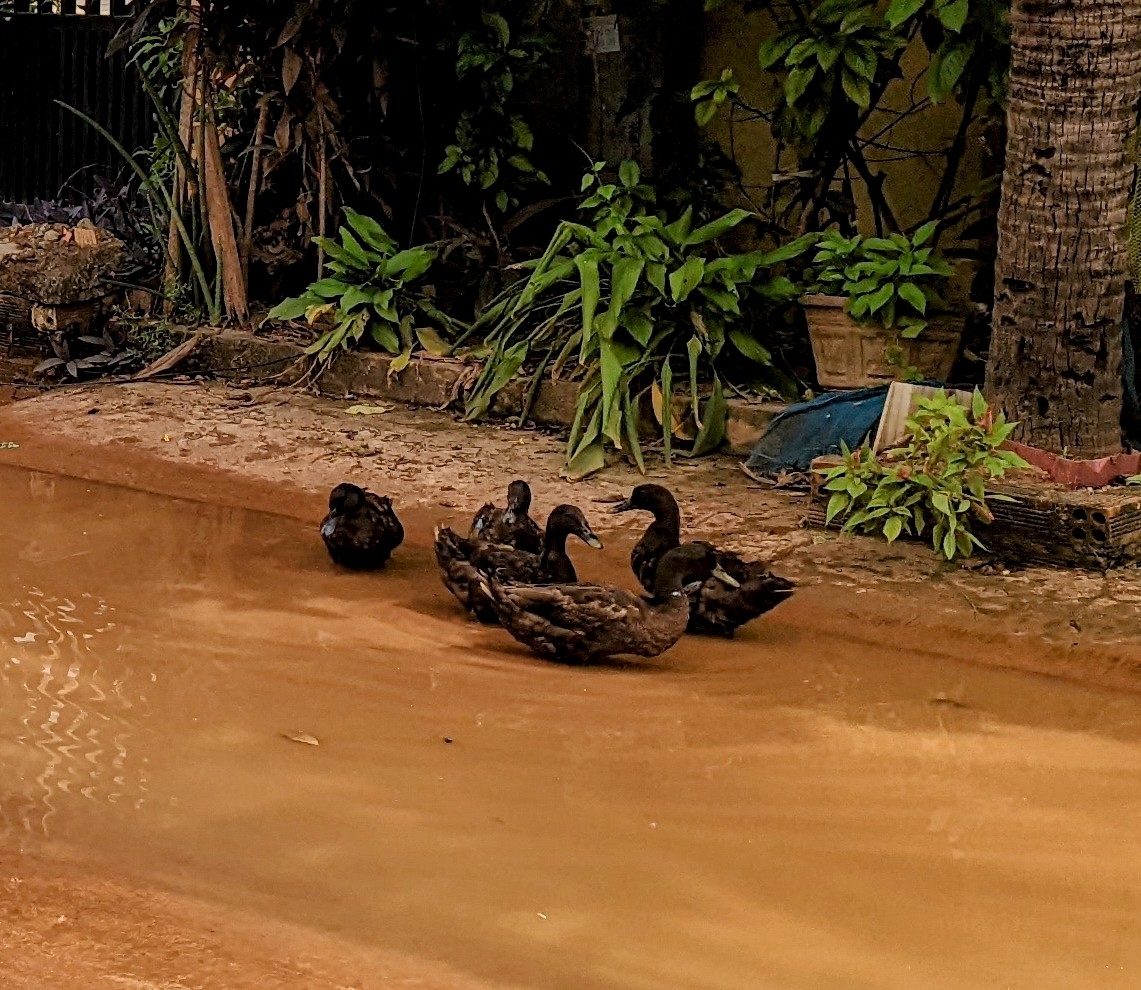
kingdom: Animalia
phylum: Chordata
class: Aves
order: Anseriformes
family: Anatidae
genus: Anas
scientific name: Anas platyrhynchos
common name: Mallard
